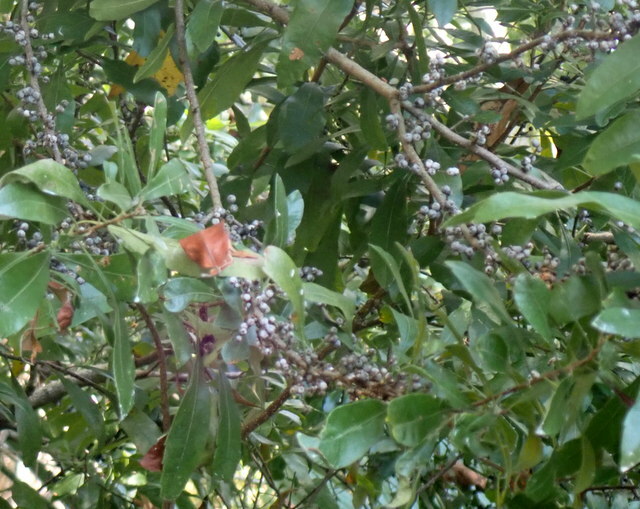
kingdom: Plantae
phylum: Tracheophyta
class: Magnoliopsida
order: Fagales
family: Myricaceae
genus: Morella
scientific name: Morella cerifera
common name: Wax myrtle
